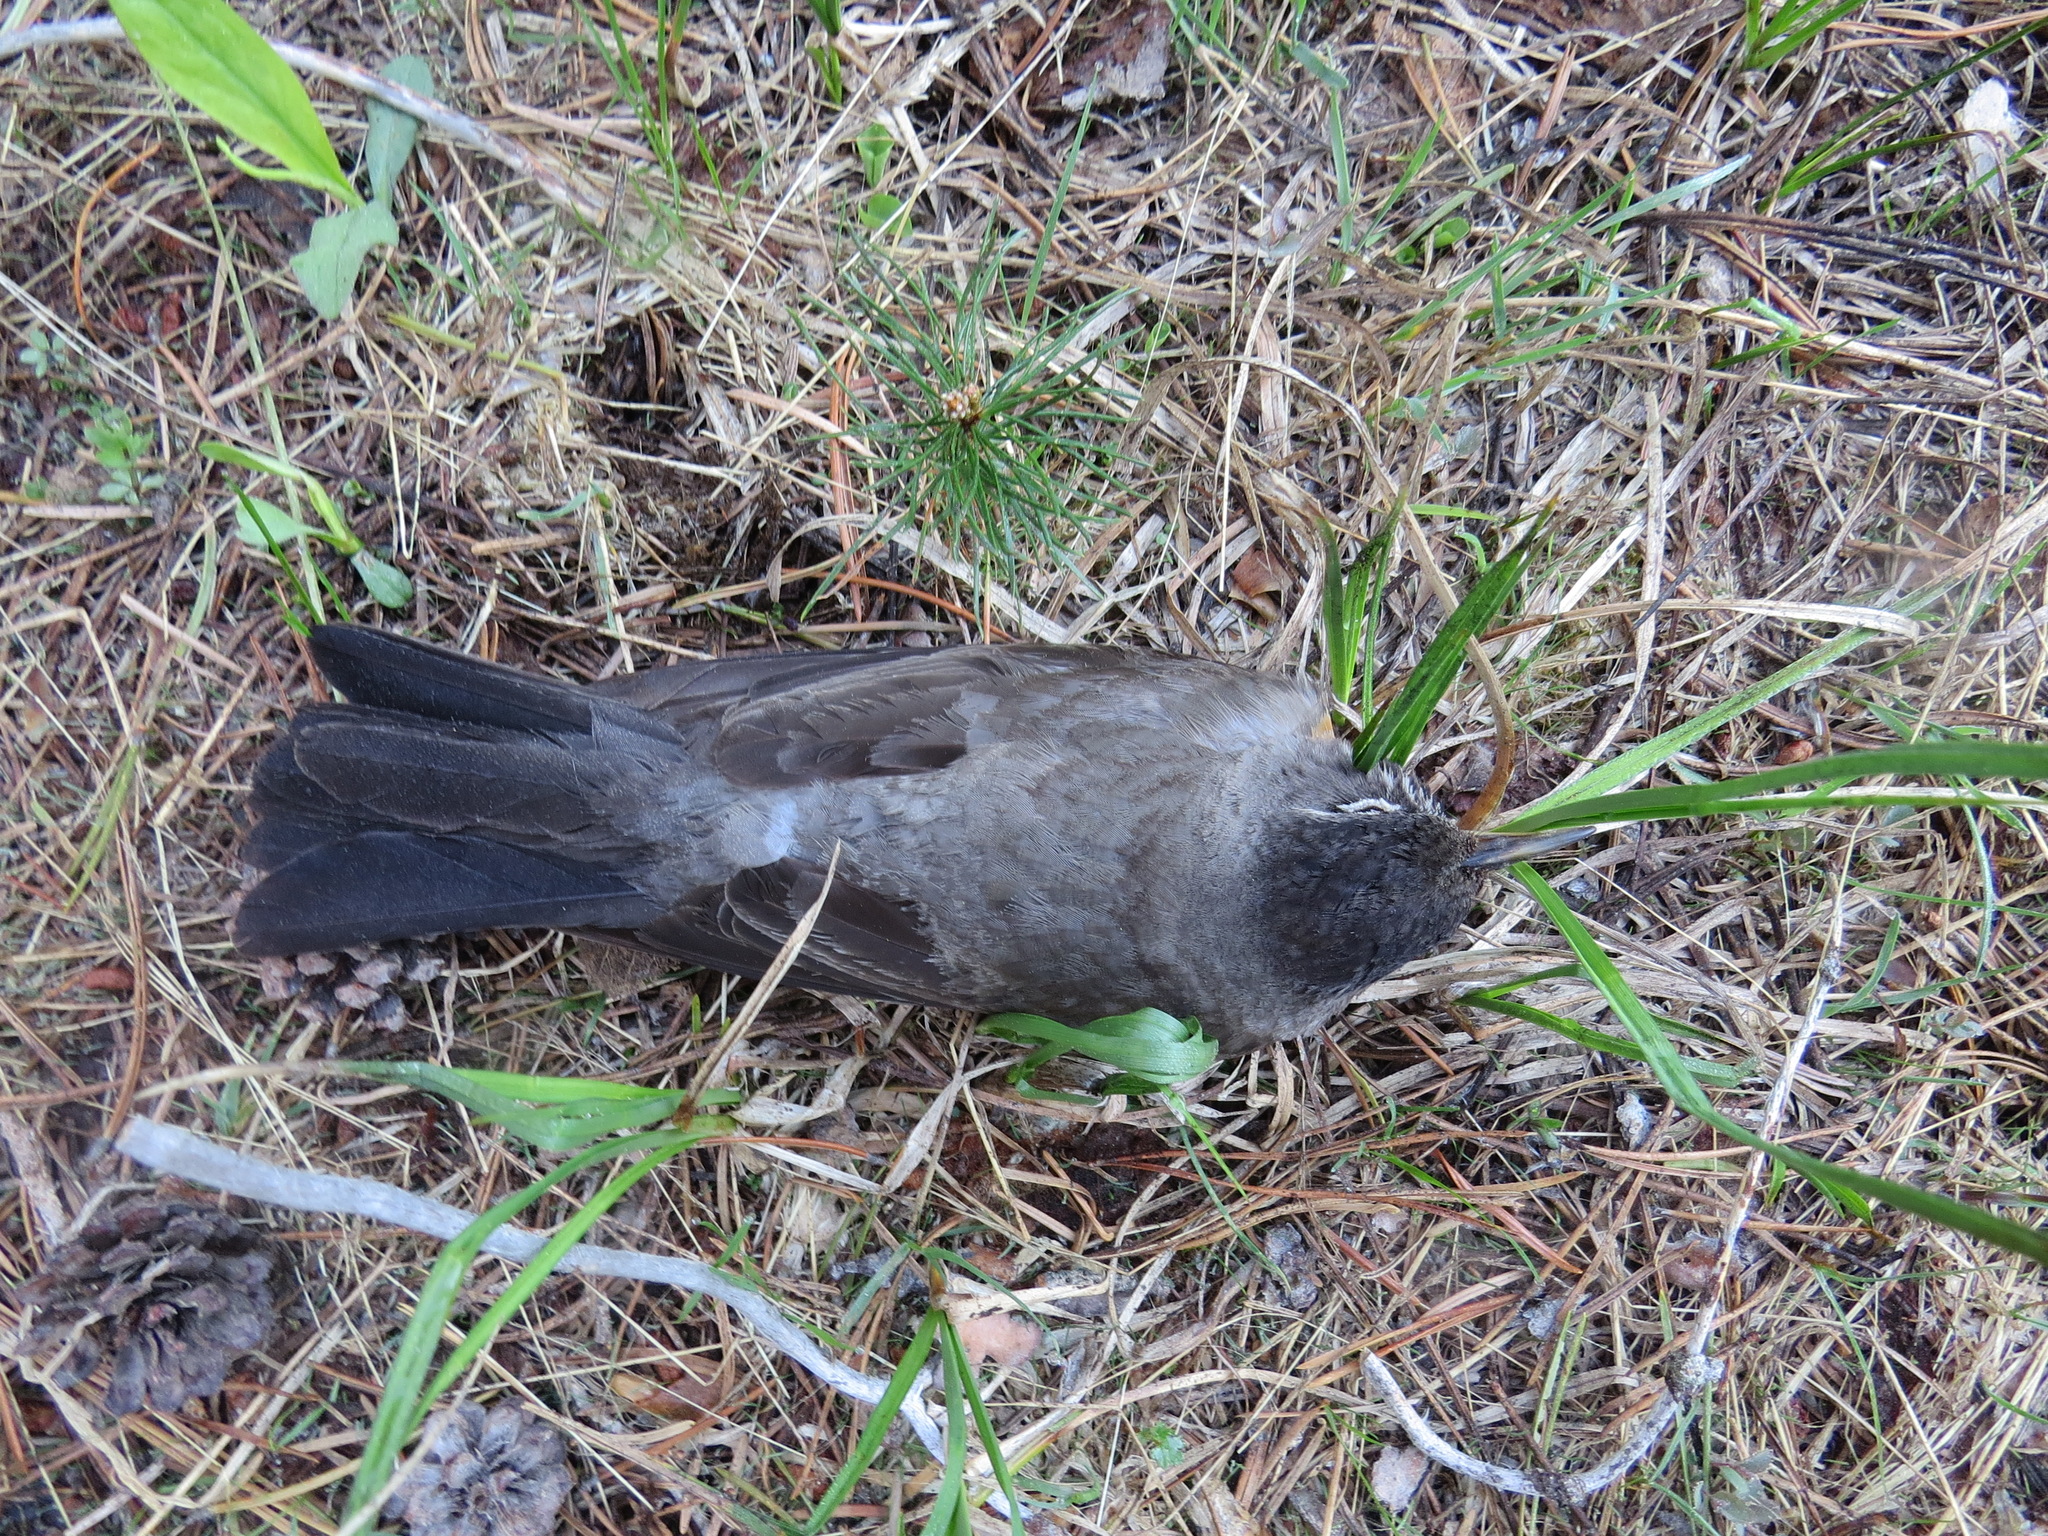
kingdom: Animalia
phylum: Chordata
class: Aves
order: Passeriformes
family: Turdidae
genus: Turdus
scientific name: Turdus migratorius
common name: American robin
